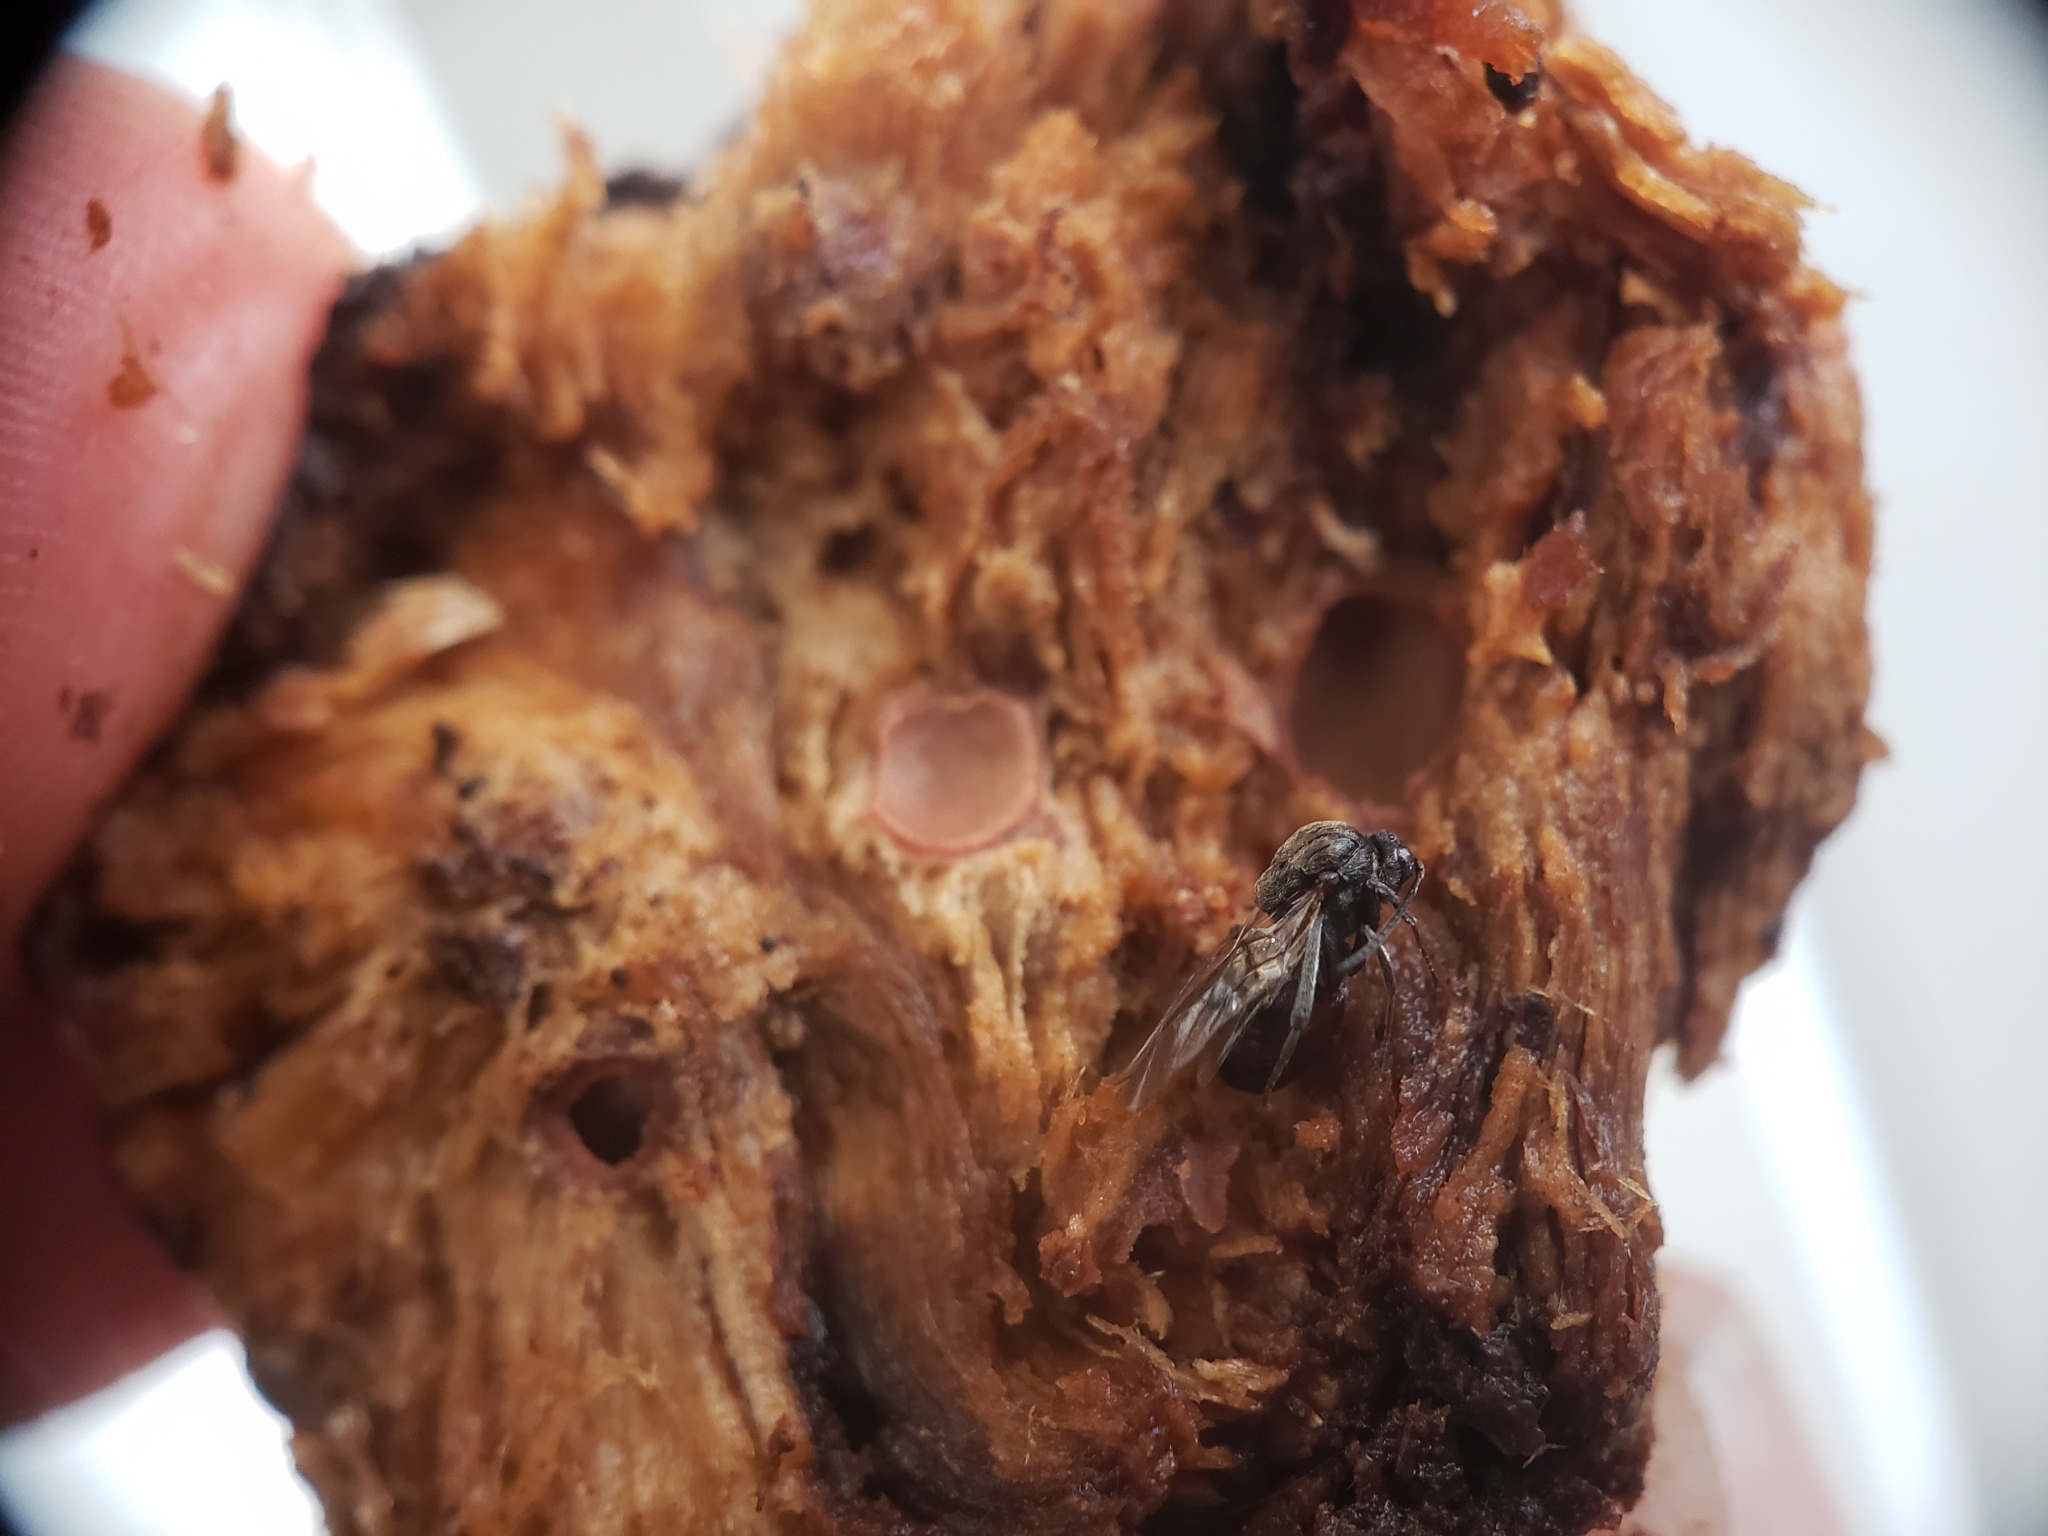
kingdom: Animalia
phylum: Arthropoda
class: Insecta
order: Hymenoptera
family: Cynipidae
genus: Holocynips
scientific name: Holocynips
